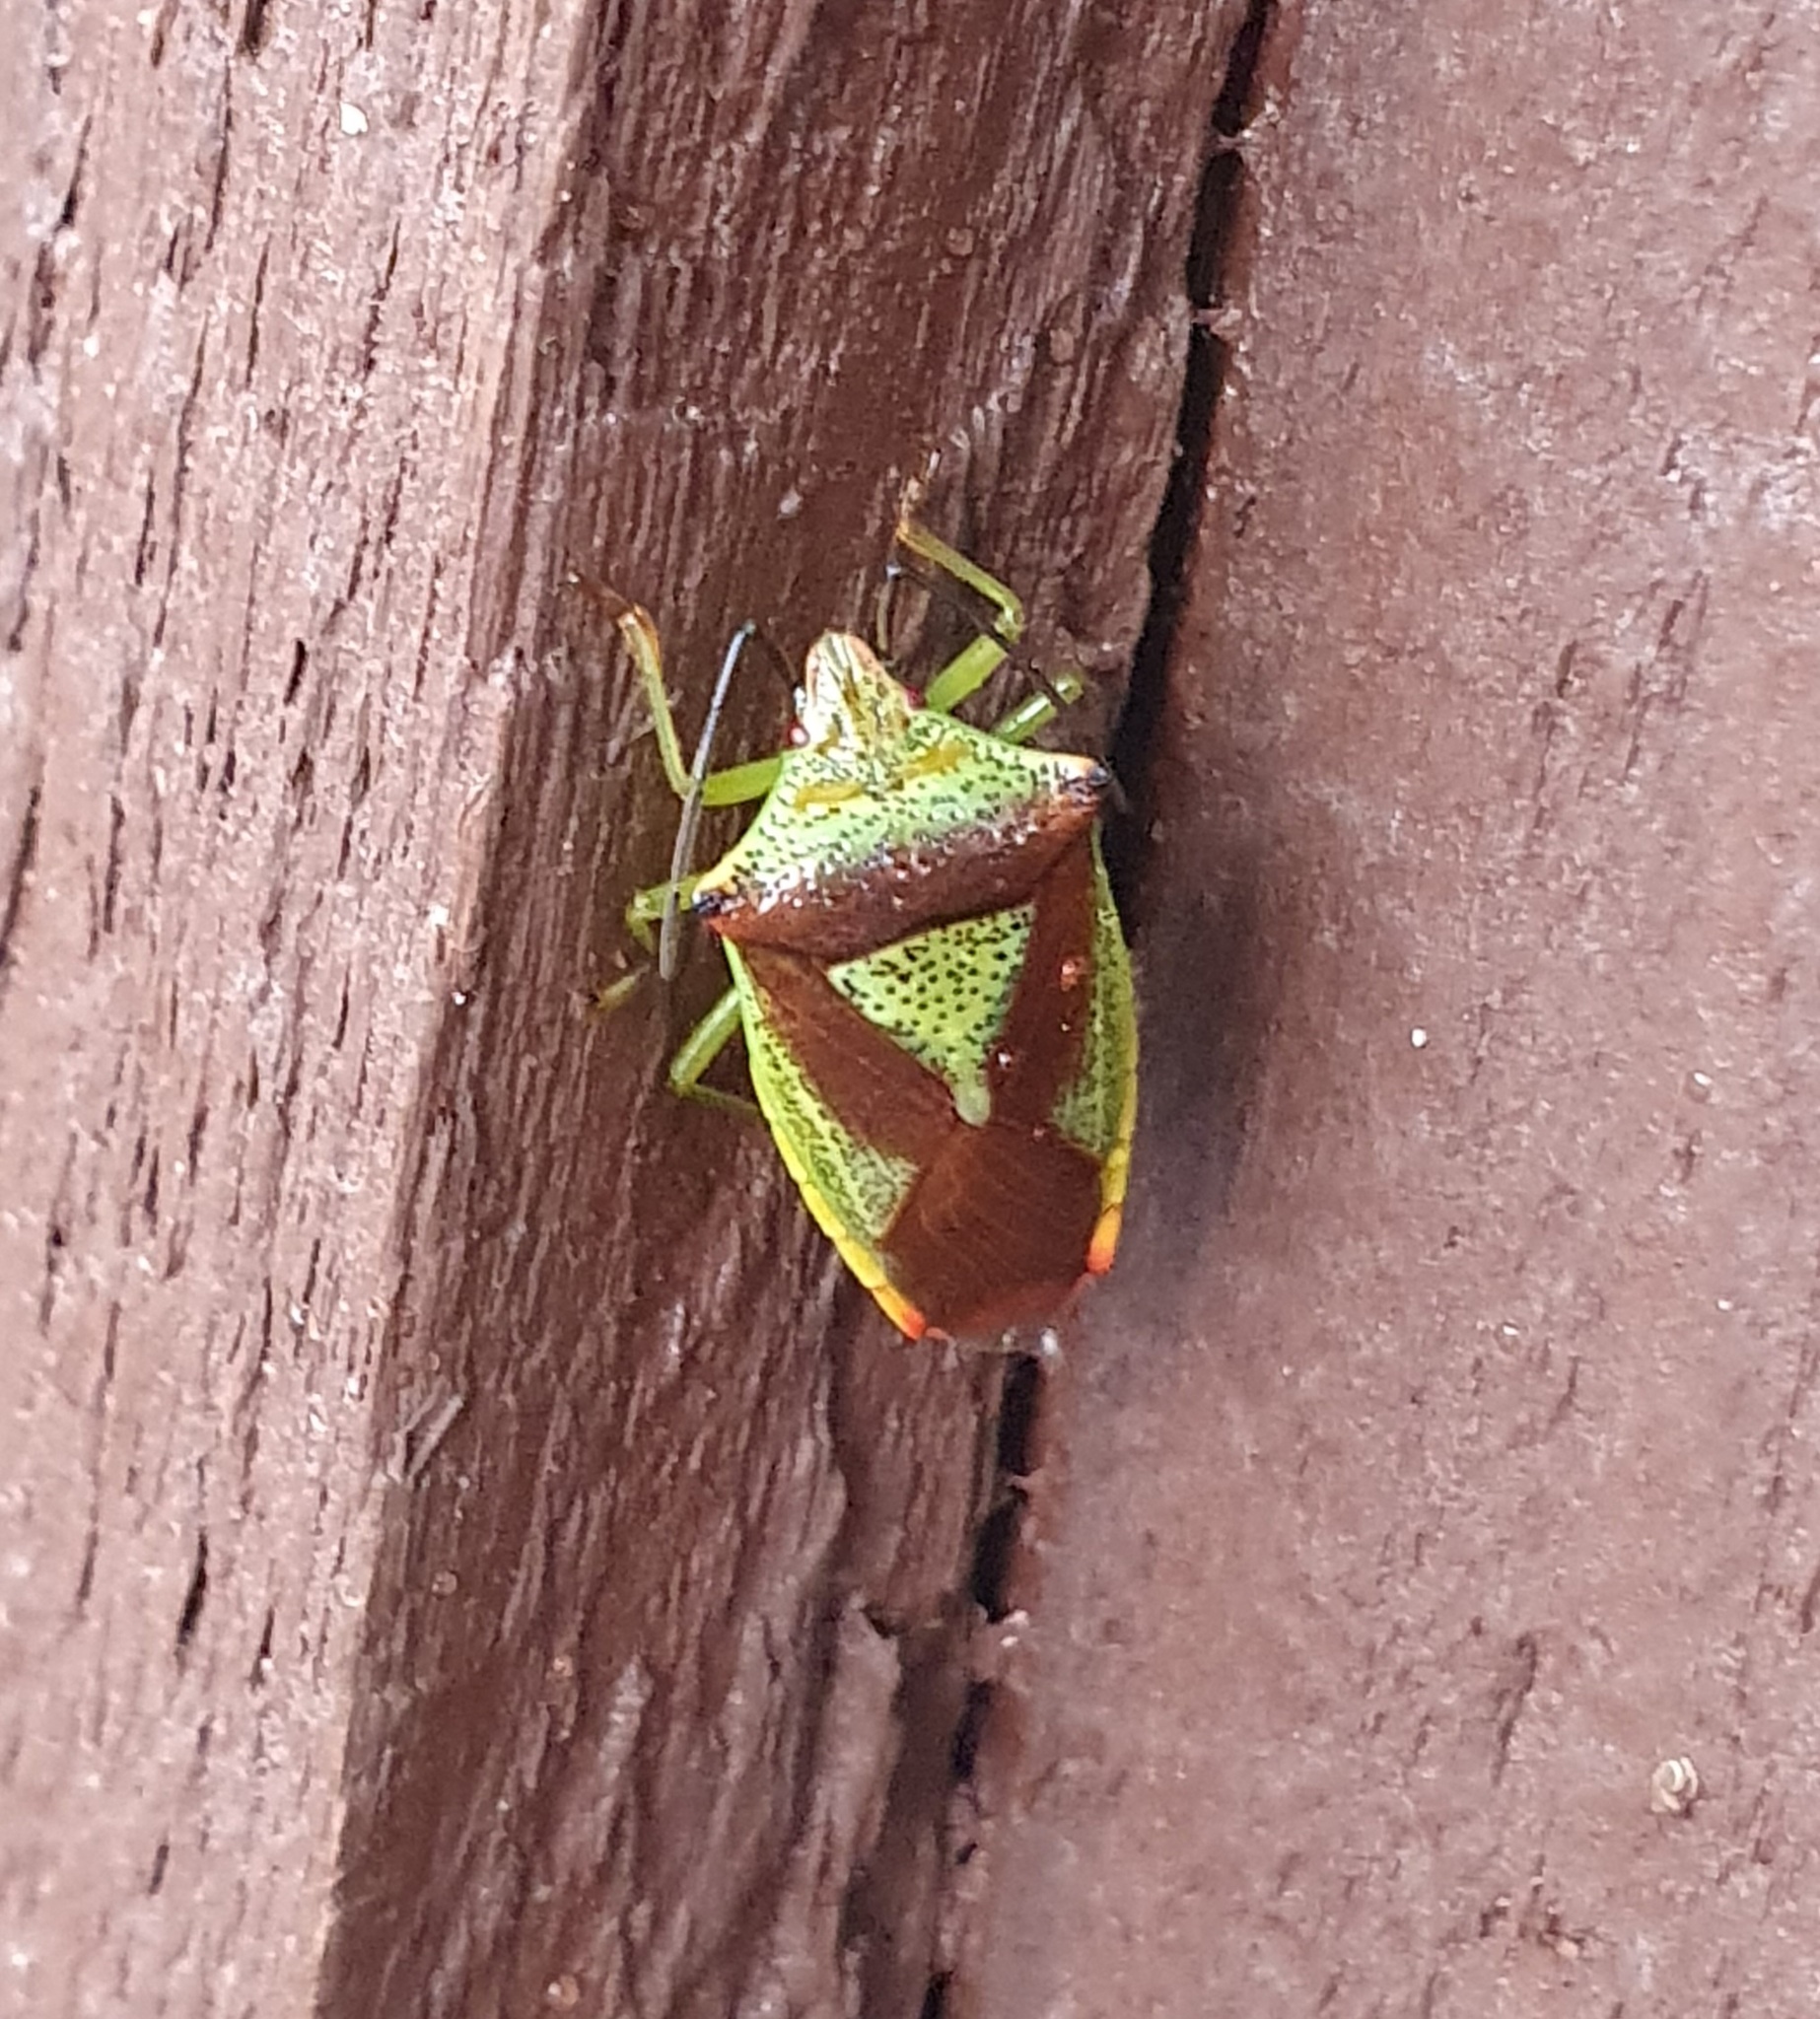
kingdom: Animalia
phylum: Arthropoda
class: Insecta
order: Hemiptera
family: Acanthosomatidae
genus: Acanthosoma
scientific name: Acanthosoma haemorrhoidale
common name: Hawthorn shieldbug
